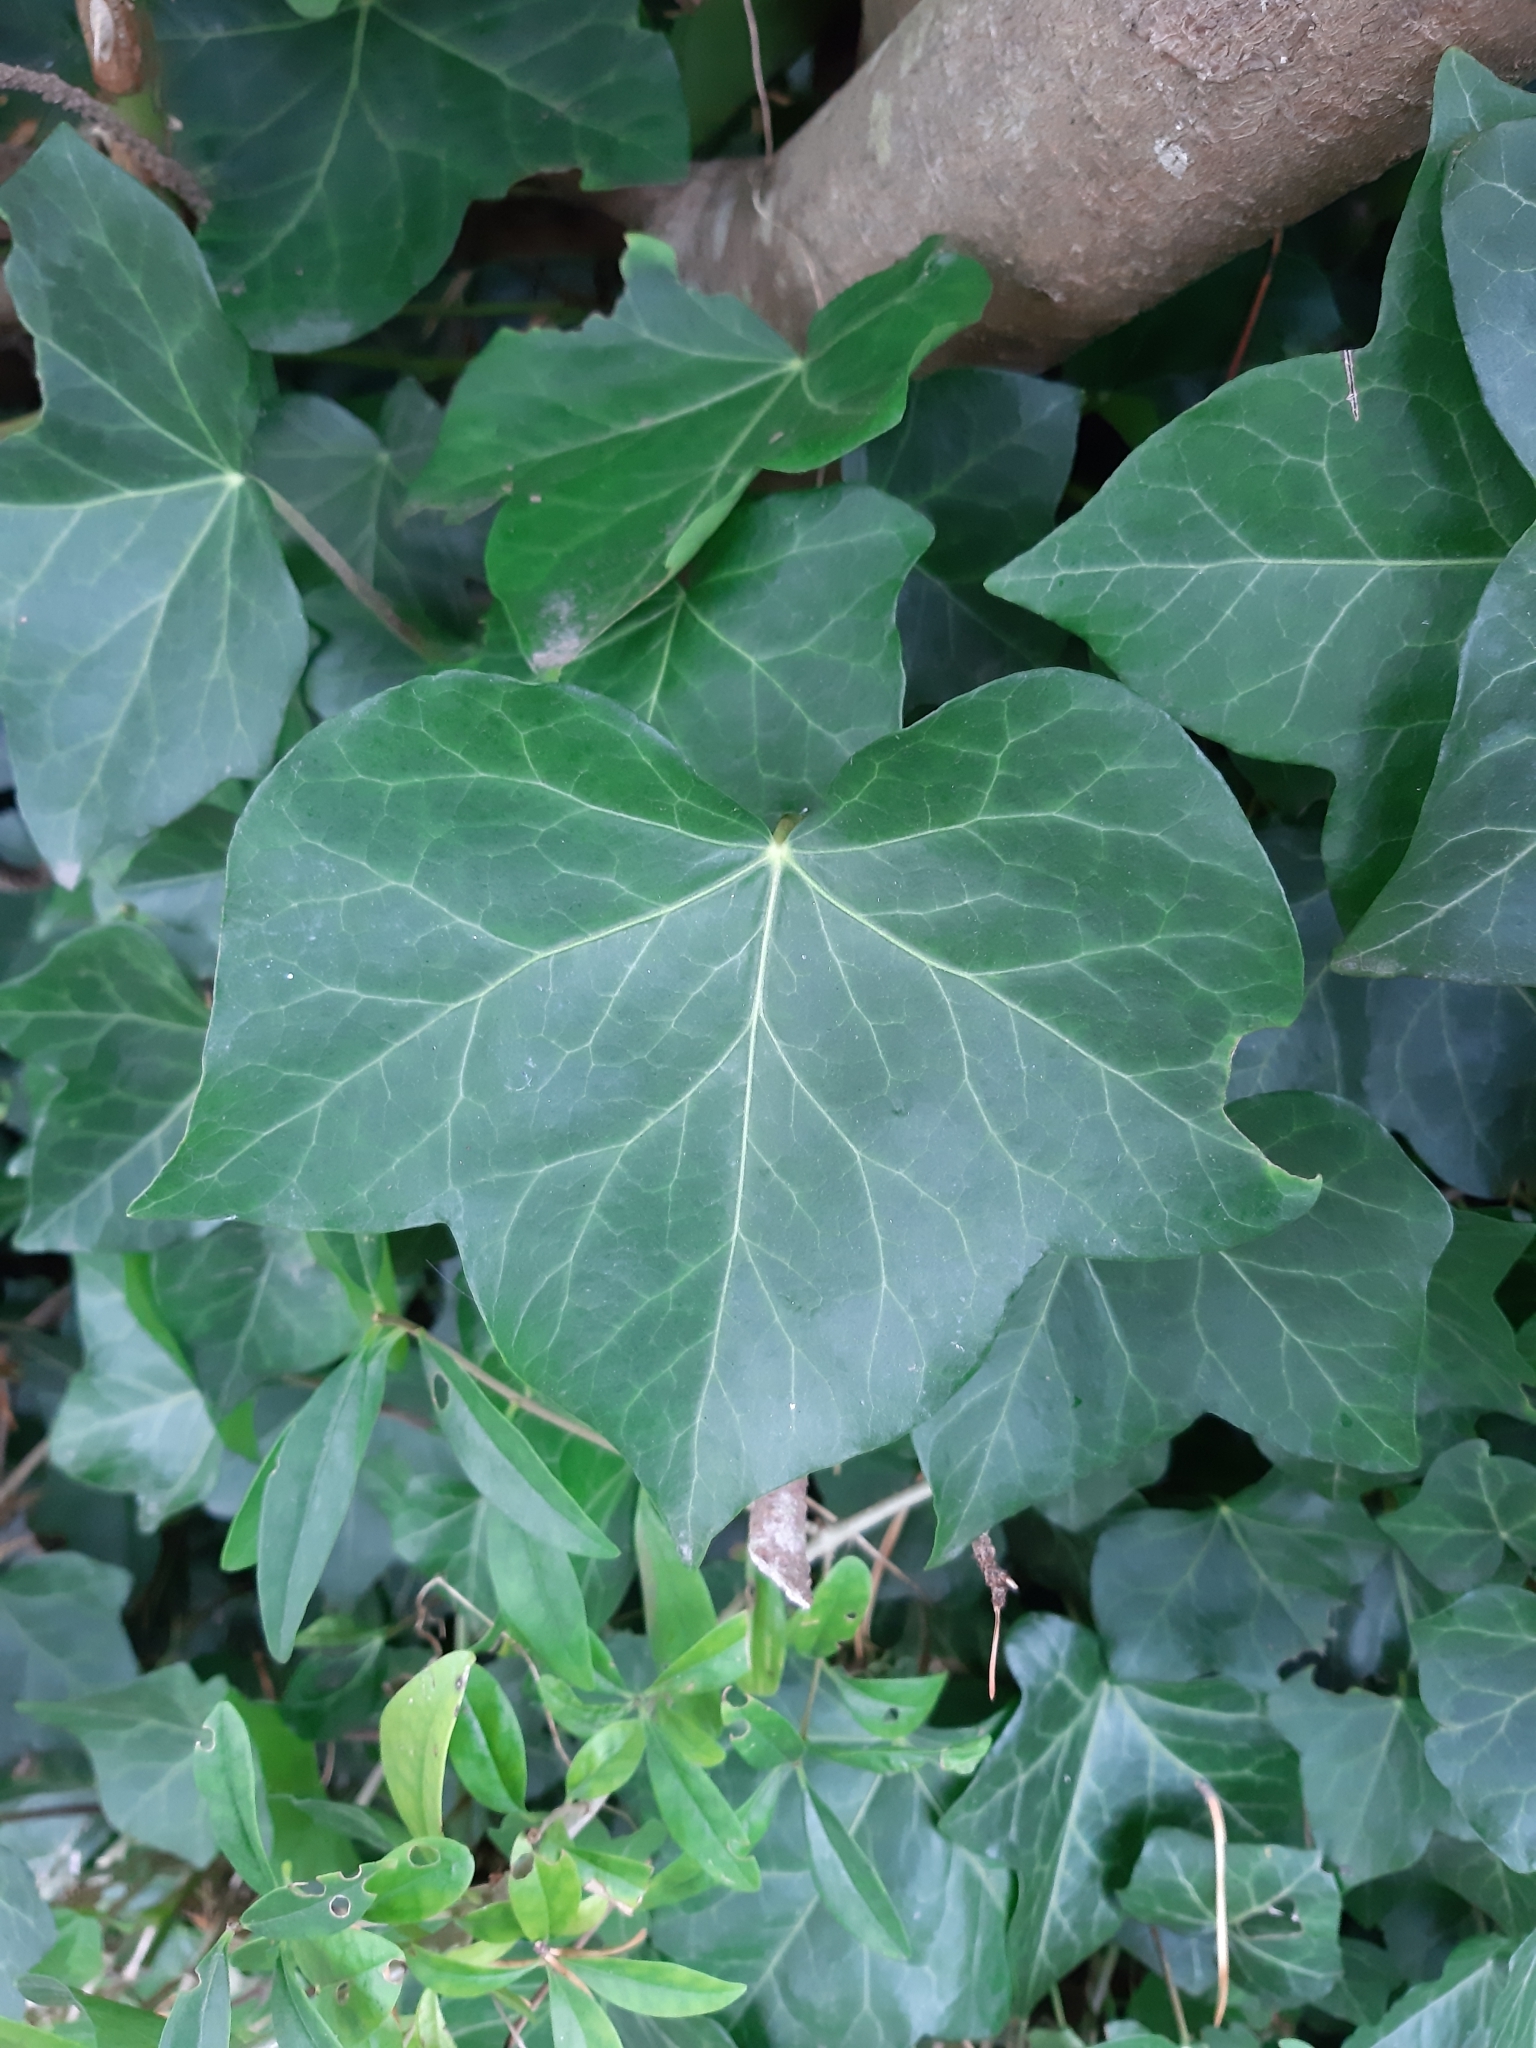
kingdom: Plantae
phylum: Tracheophyta
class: Magnoliopsida
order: Apiales
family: Araliaceae
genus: Hedera
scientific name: Hedera helix
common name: Ivy
